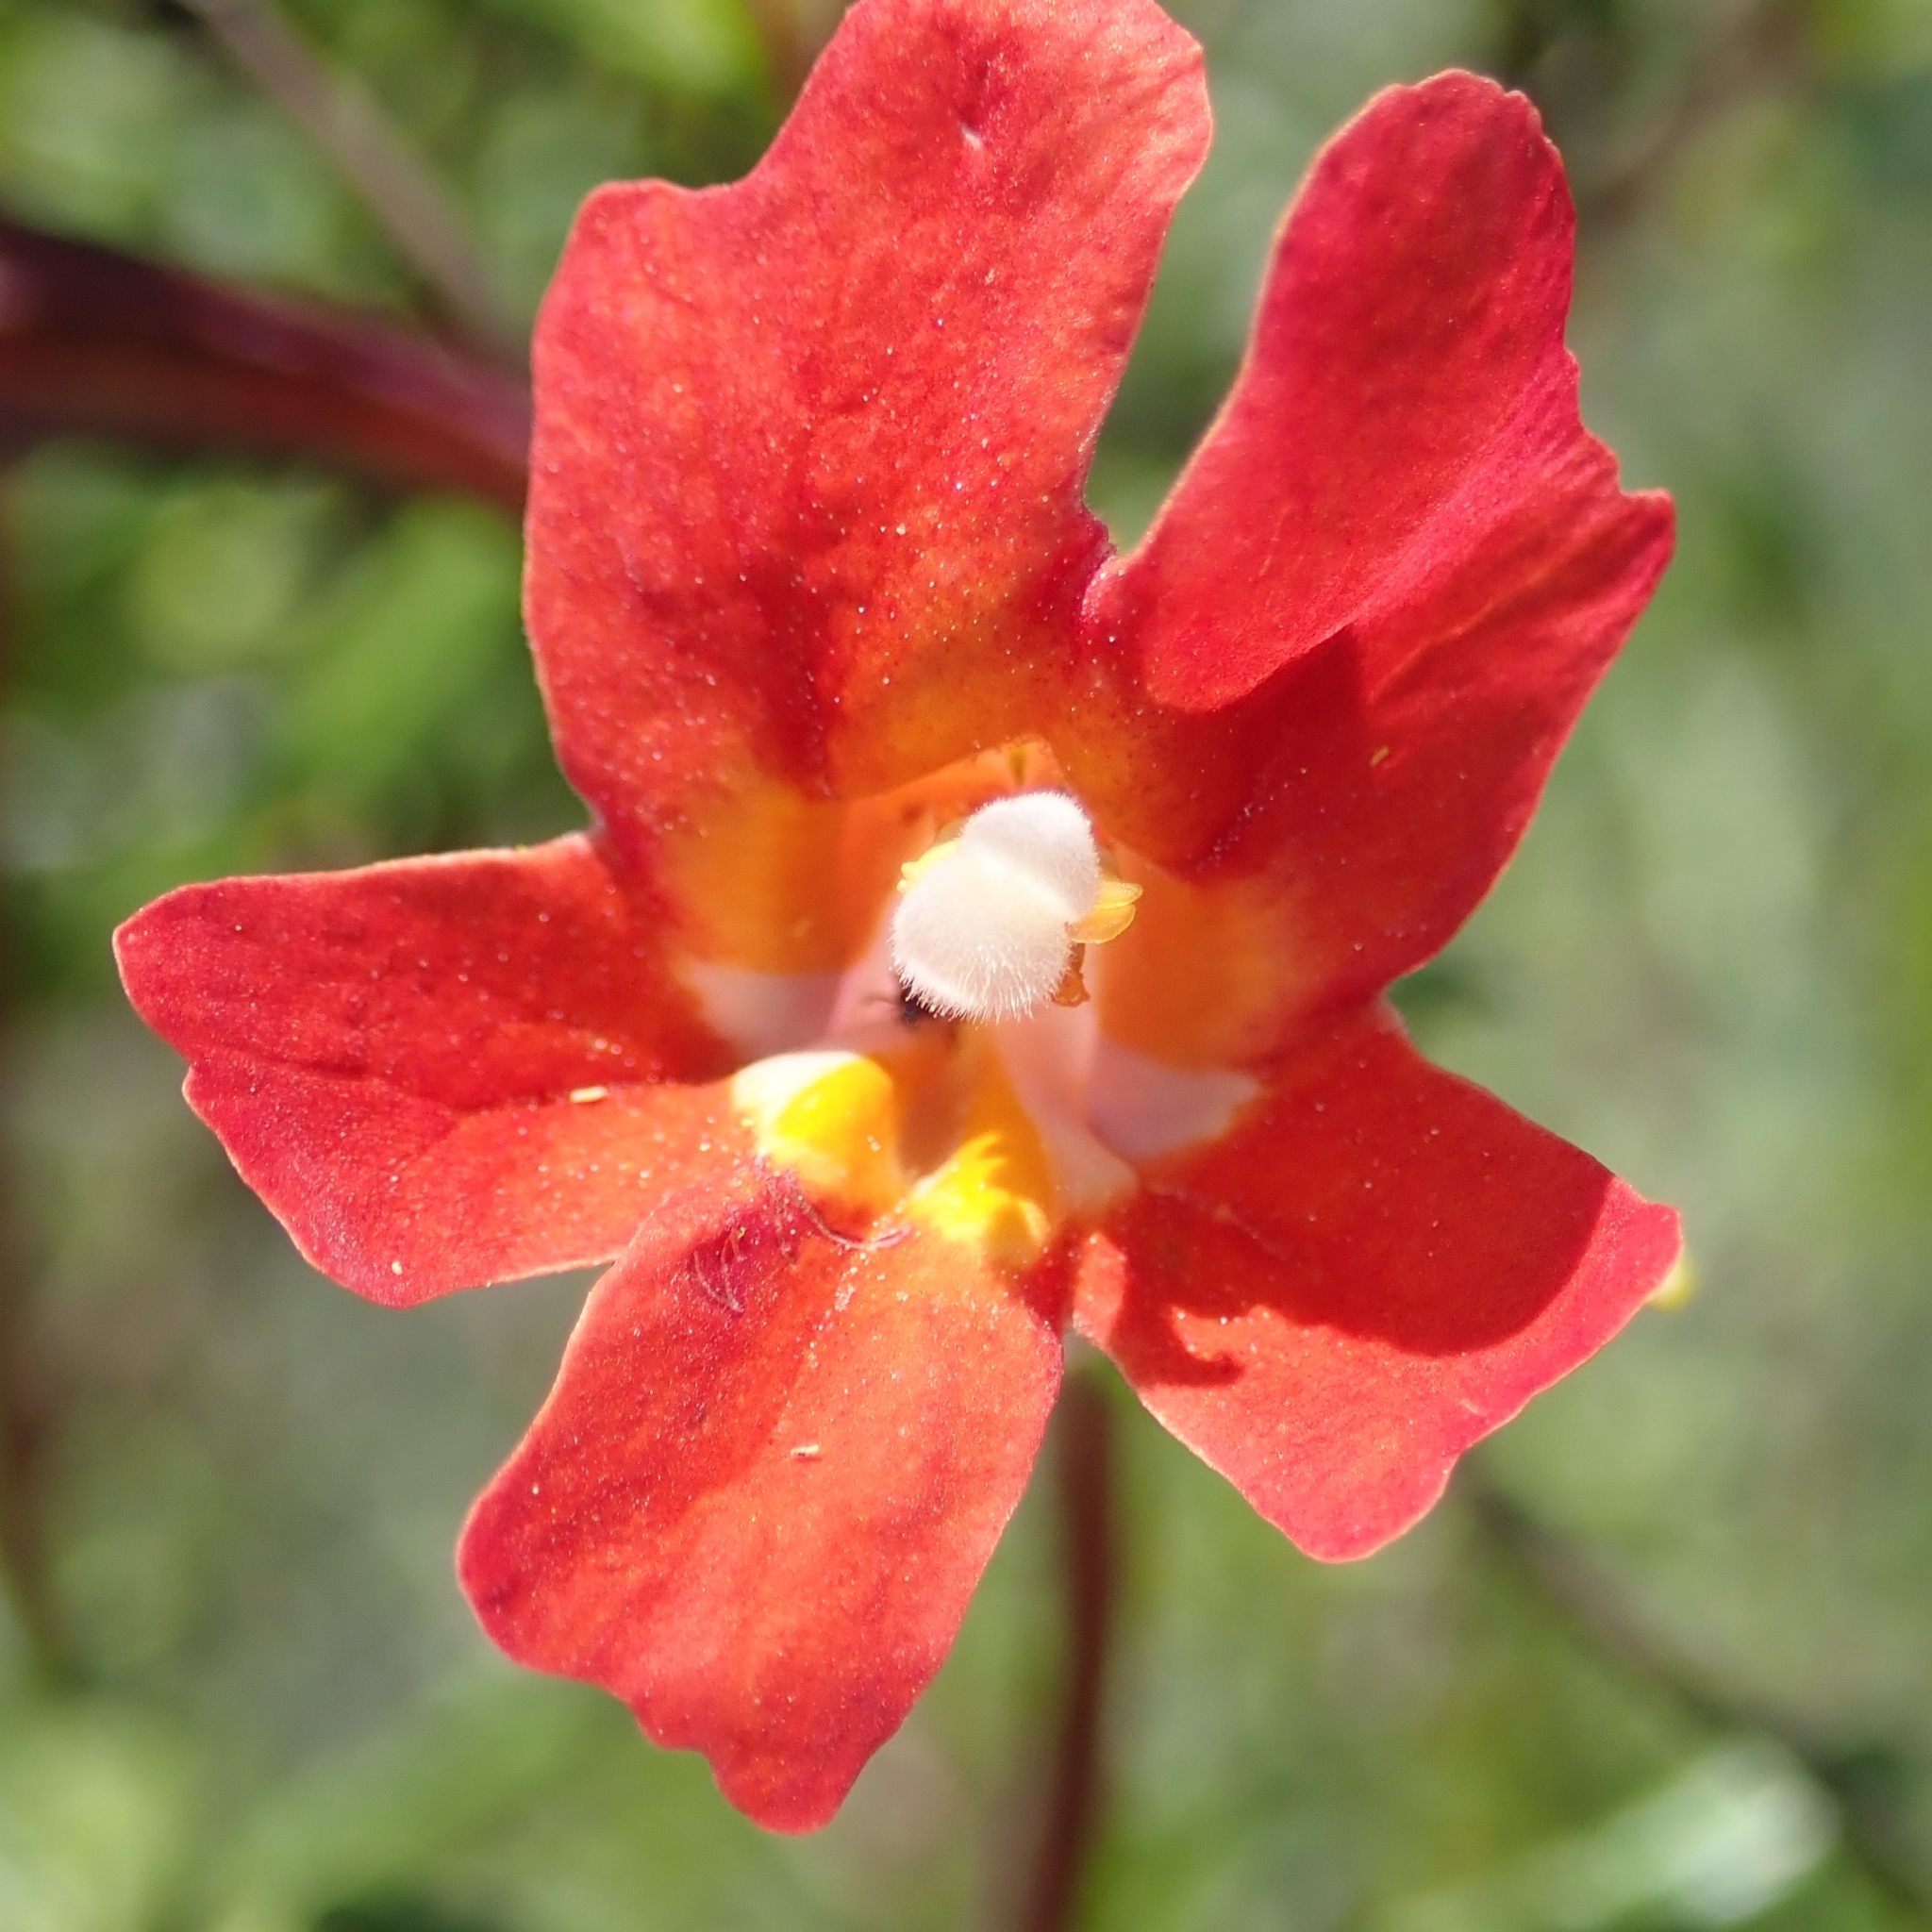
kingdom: Plantae
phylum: Tracheophyta
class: Magnoliopsida
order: Lamiales
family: Phrymaceae
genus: Diplacus
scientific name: Diplacus puniceus
